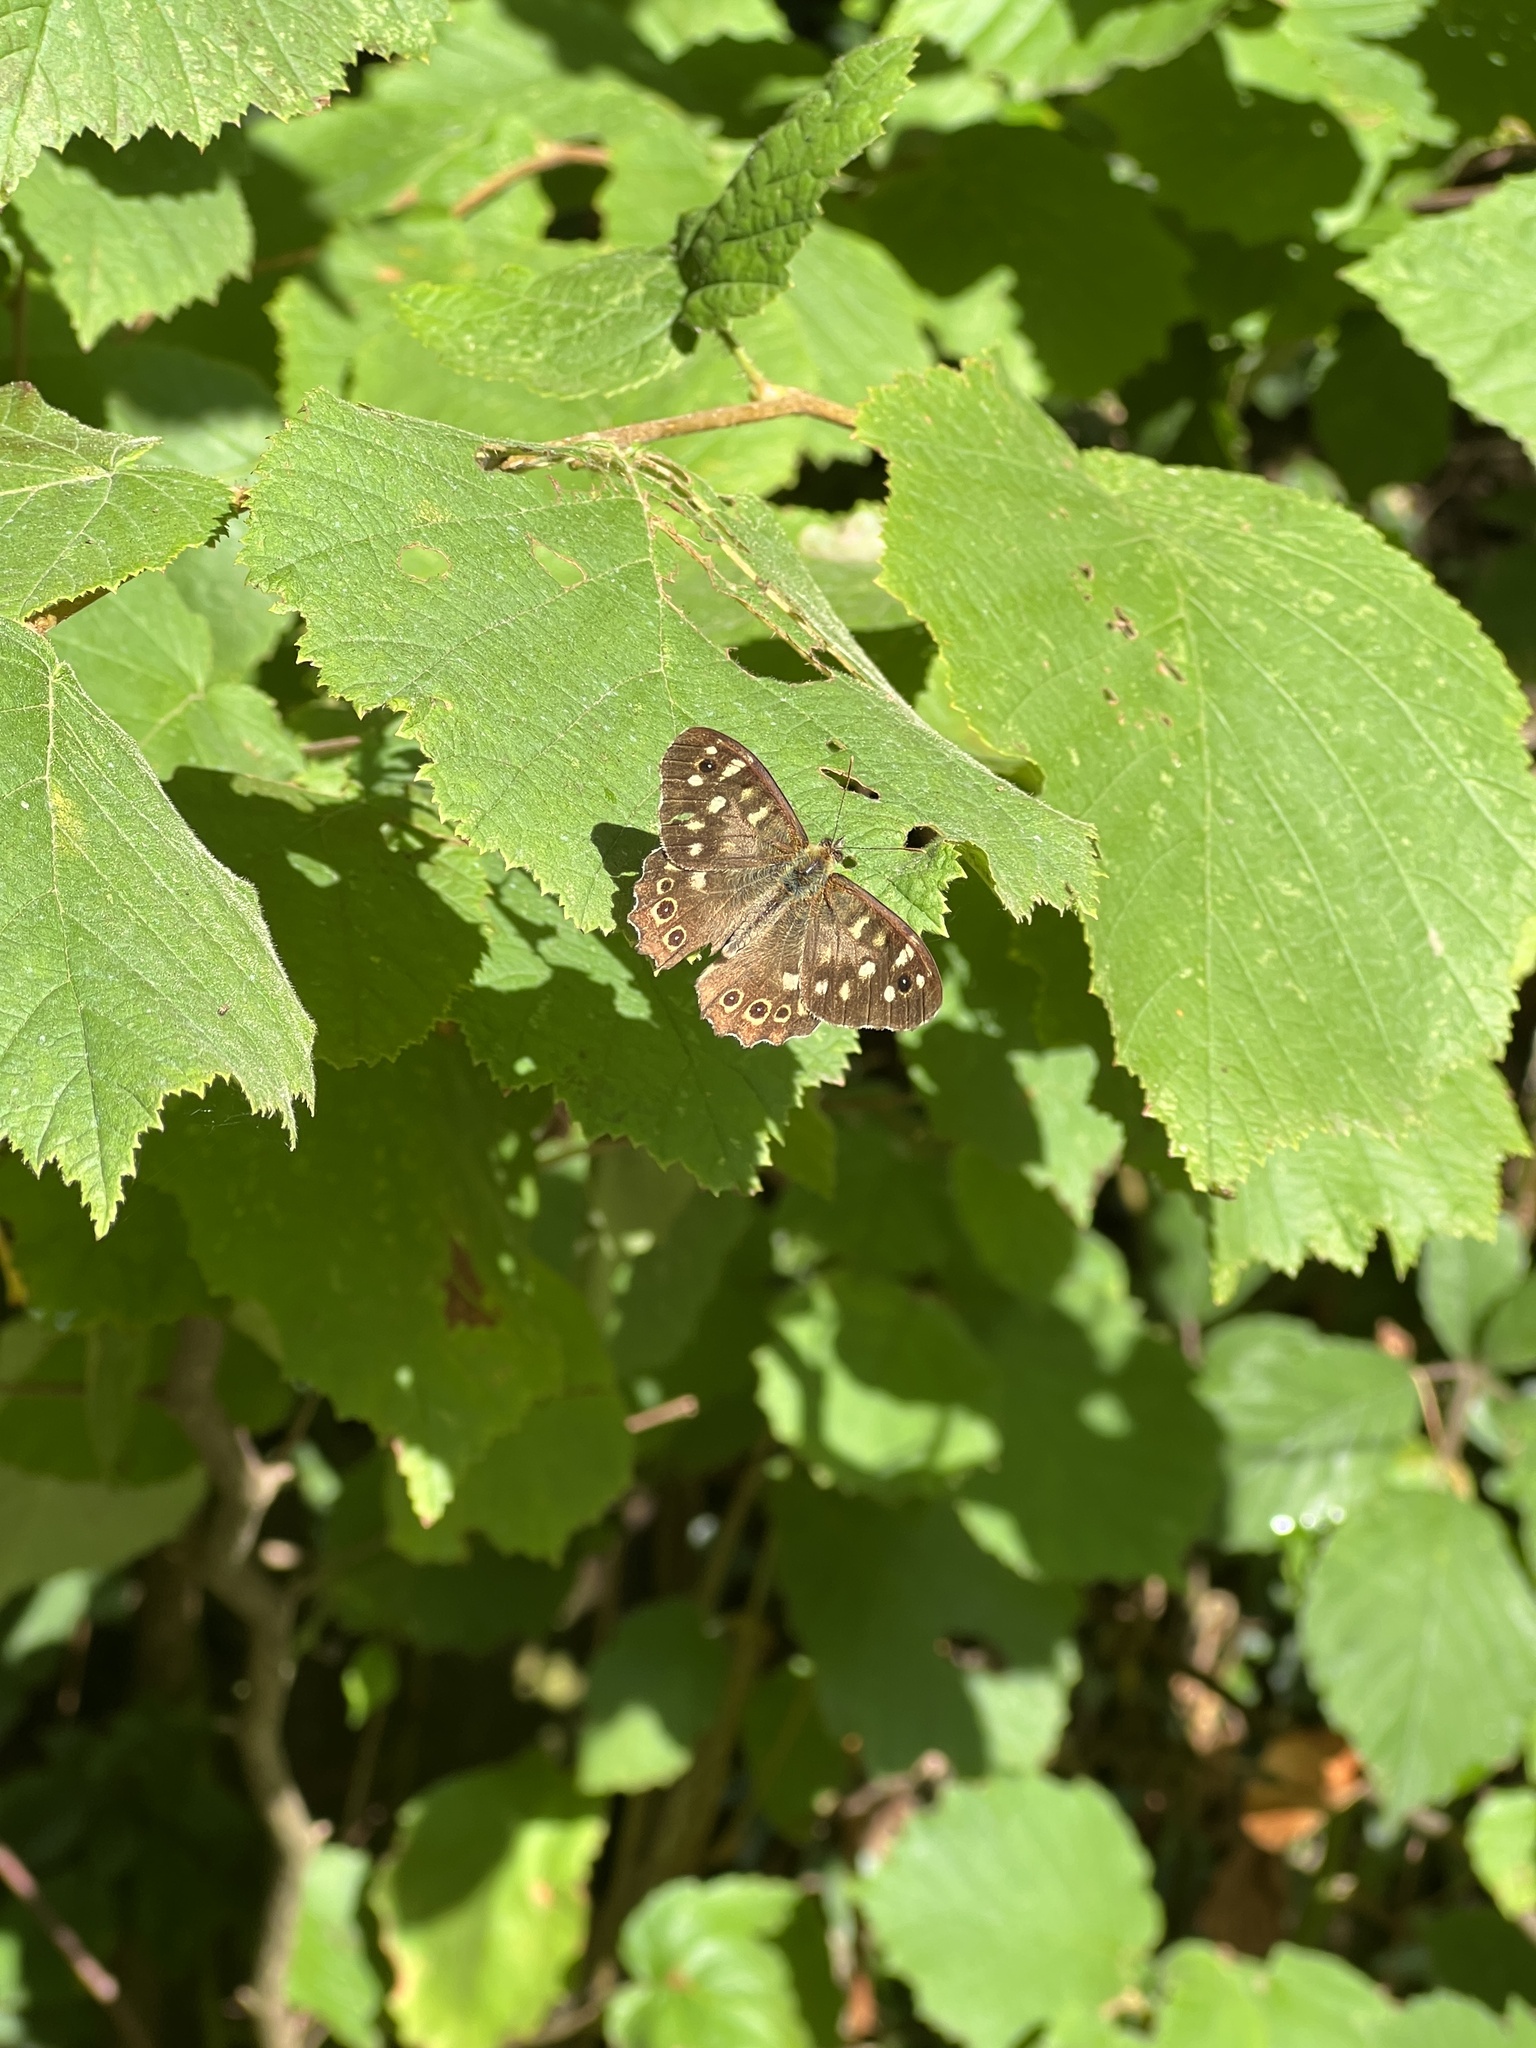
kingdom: Animalia
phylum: Arthropoda
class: Insecta
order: Lepidoptera
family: Nymphalidae
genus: Pararge
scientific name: Pararge aegeria
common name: Speckled wood
